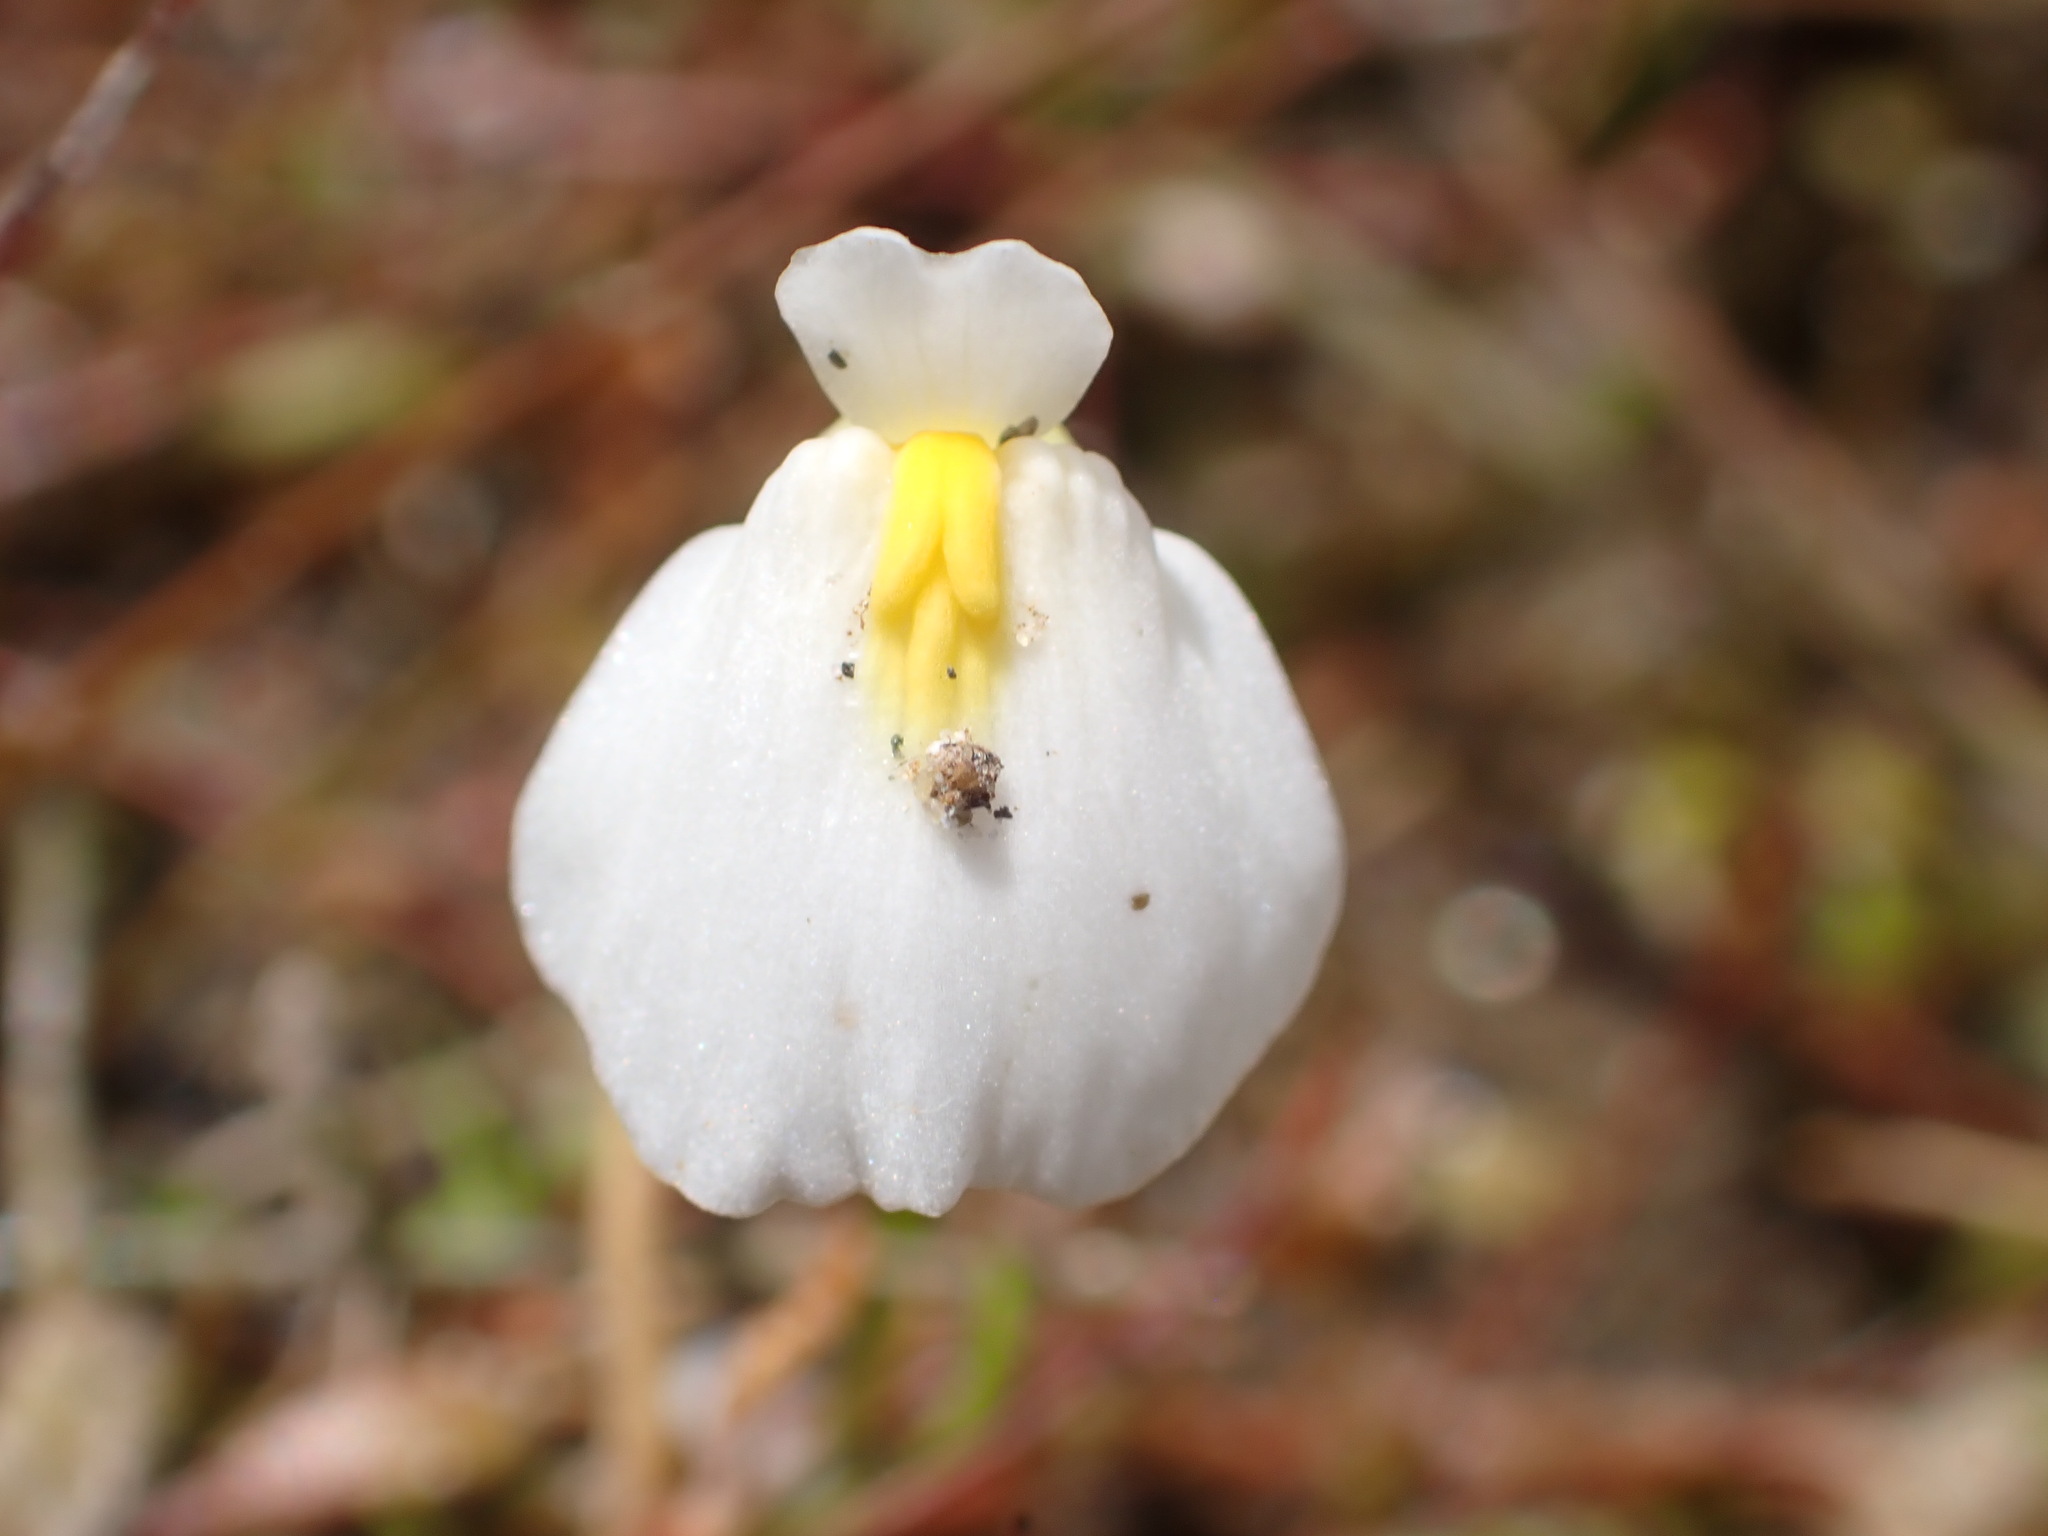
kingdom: Plantae
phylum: Tracheophyta
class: Magnoliopsida
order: Lamiales
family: Lentibulariaceae
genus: Utricularia
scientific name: Utricularia dichotoma
